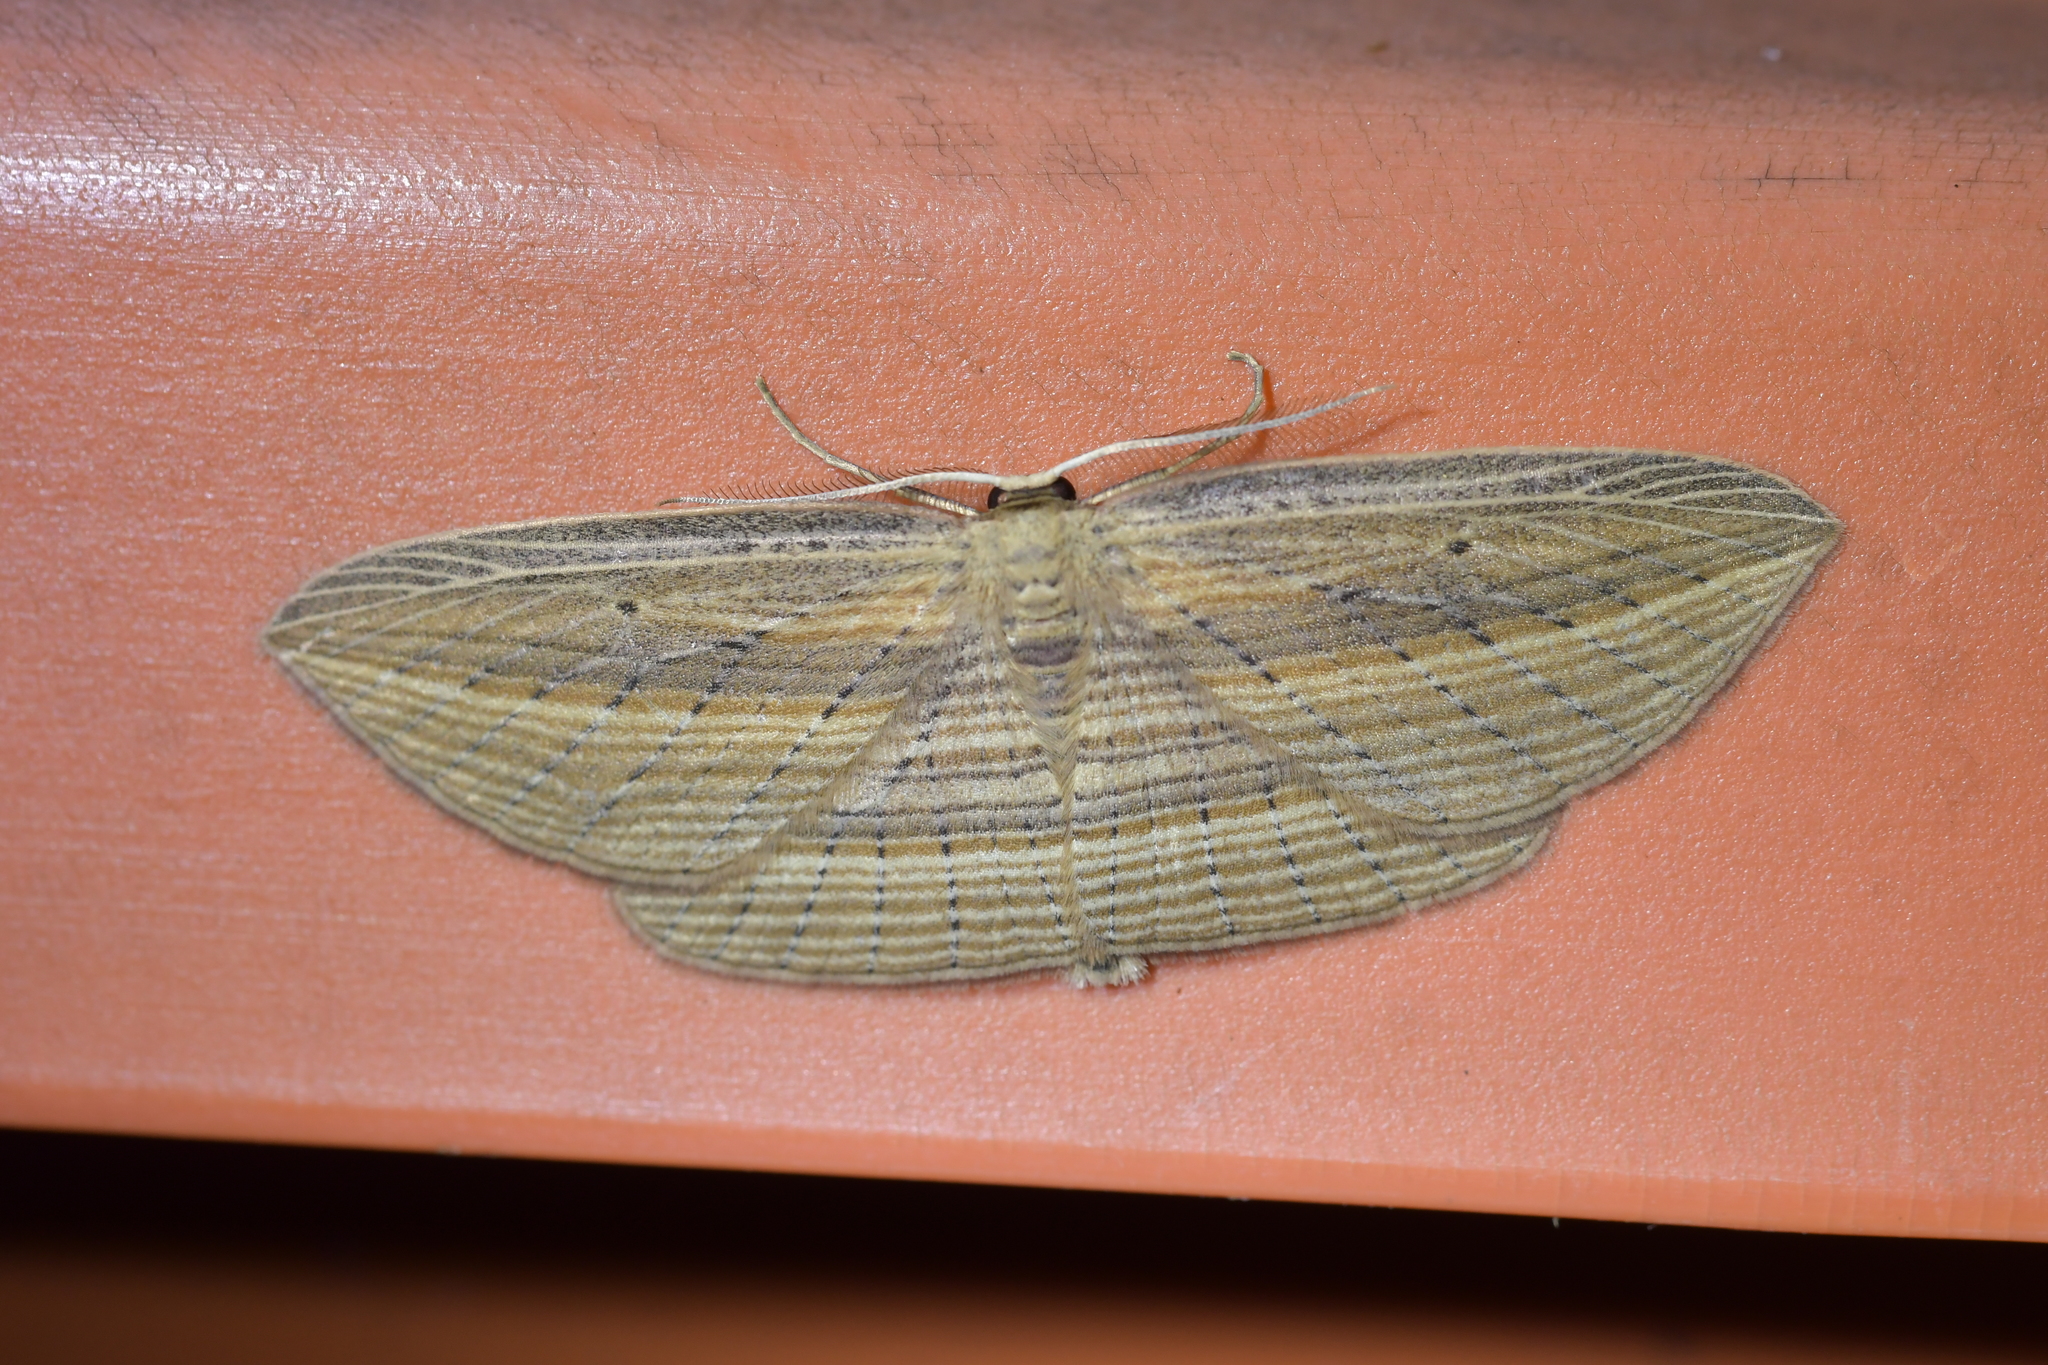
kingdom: Animalia
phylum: Arthropoda
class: Insecta
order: Lepidoptera
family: Geometridae
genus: Epiphryne
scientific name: Epiphryne verriculata
